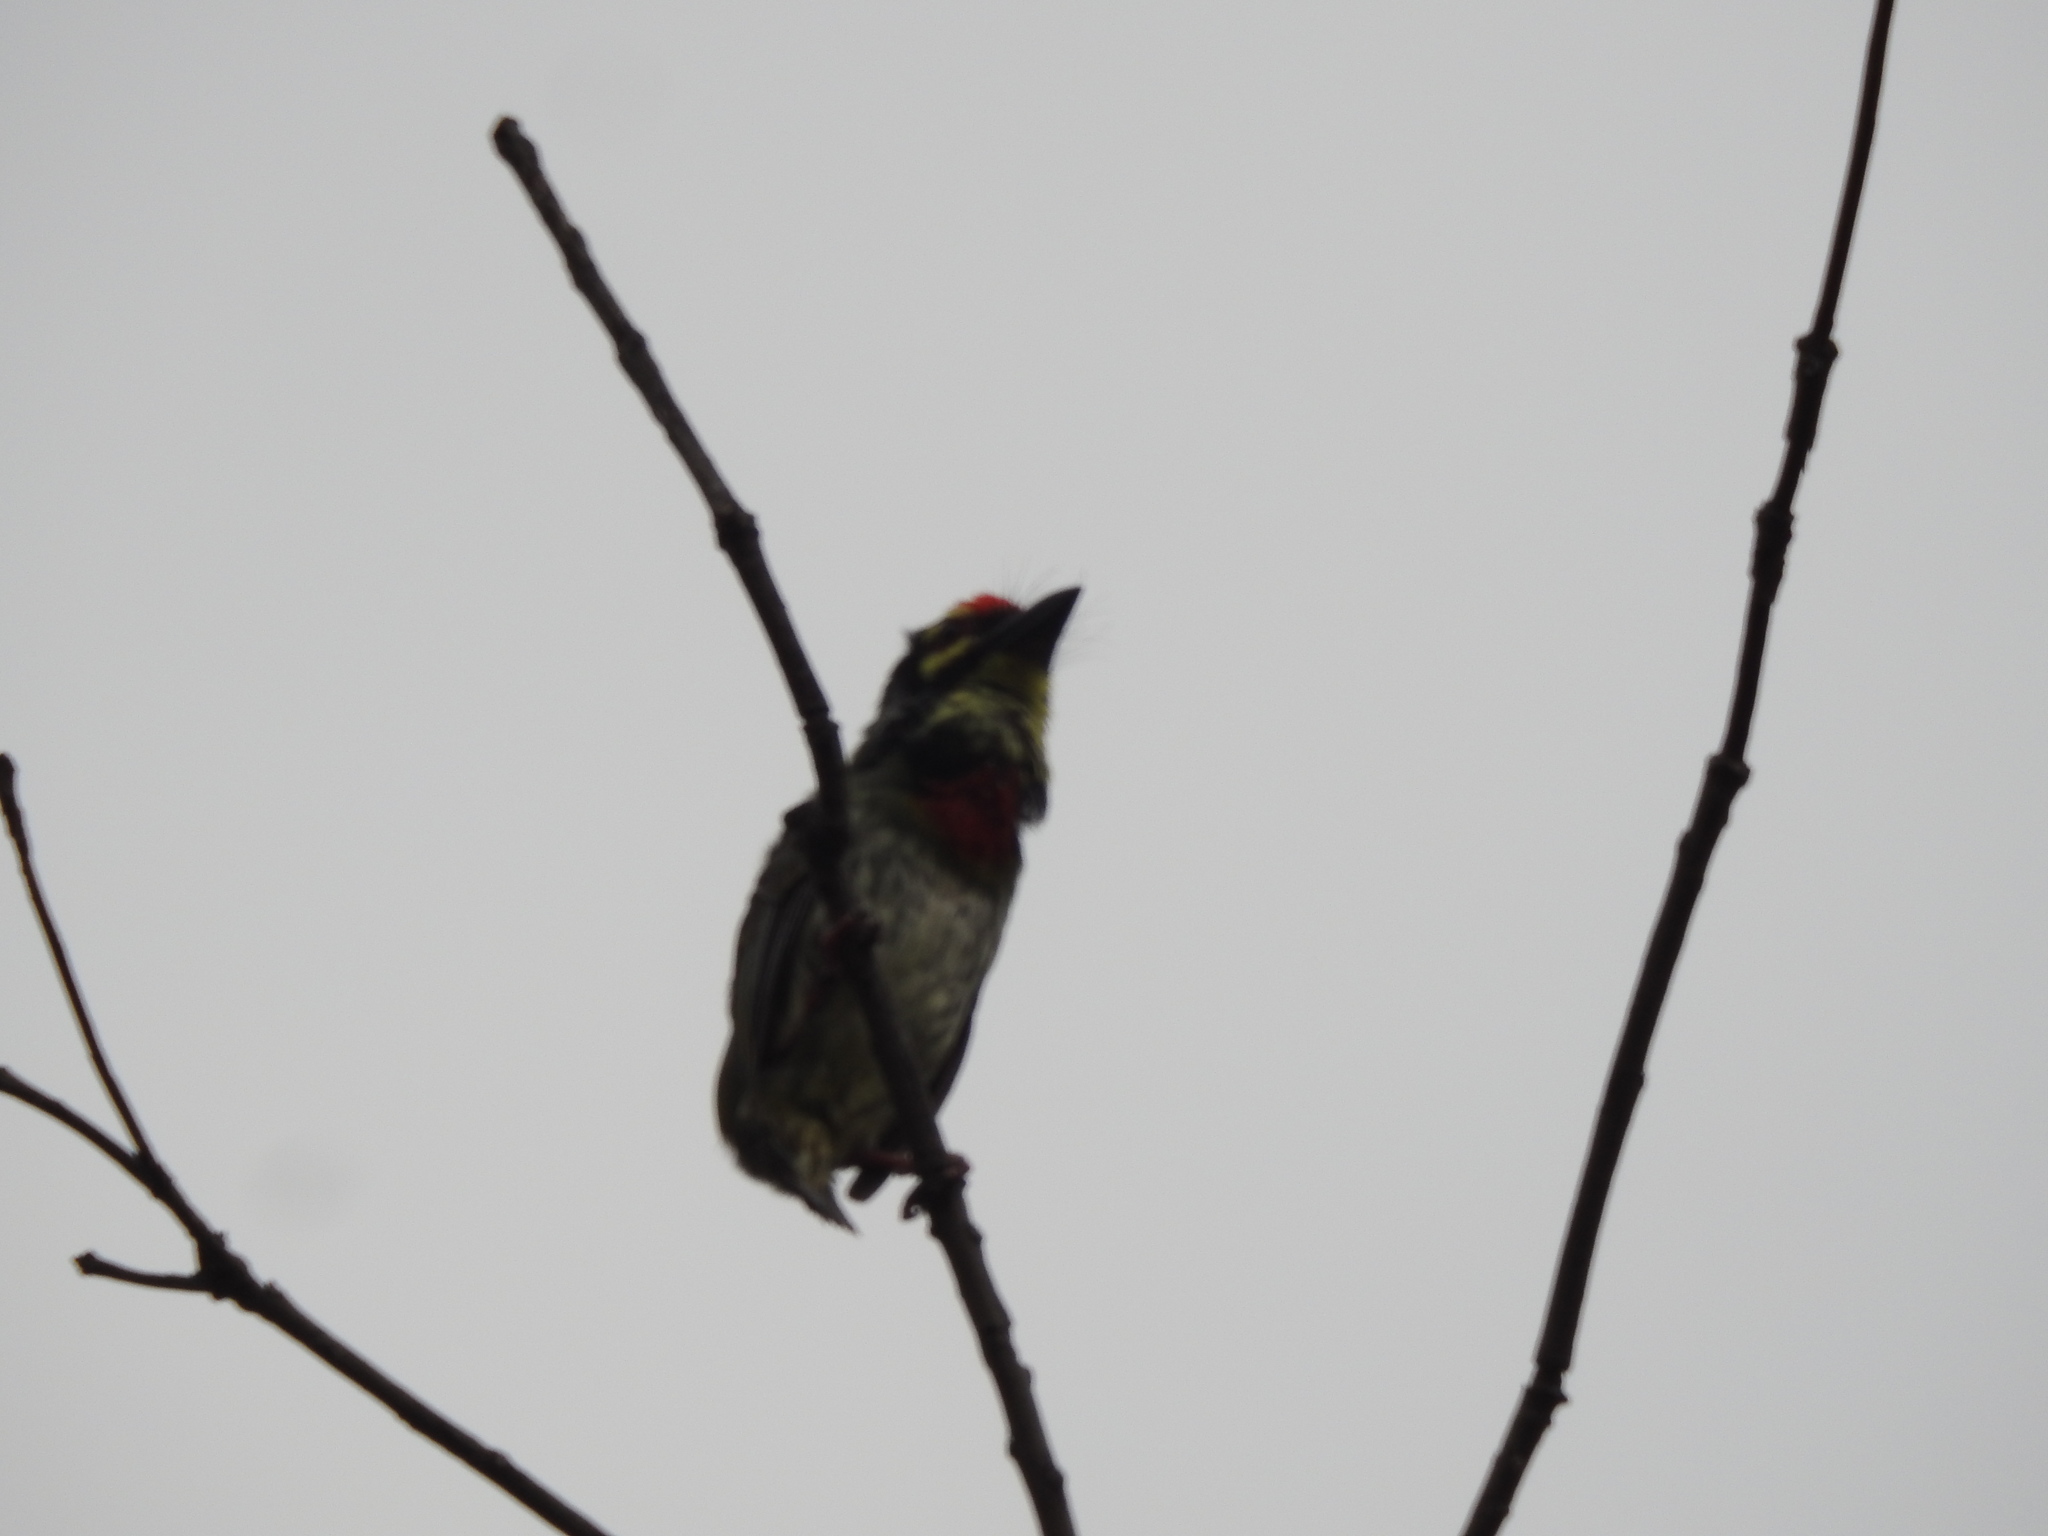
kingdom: Animalia
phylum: Chordata
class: Aves
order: Piciformes
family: Megalaimidae
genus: Psilopogon
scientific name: Psilopogon haemacephalus
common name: Coppersmith barbet
